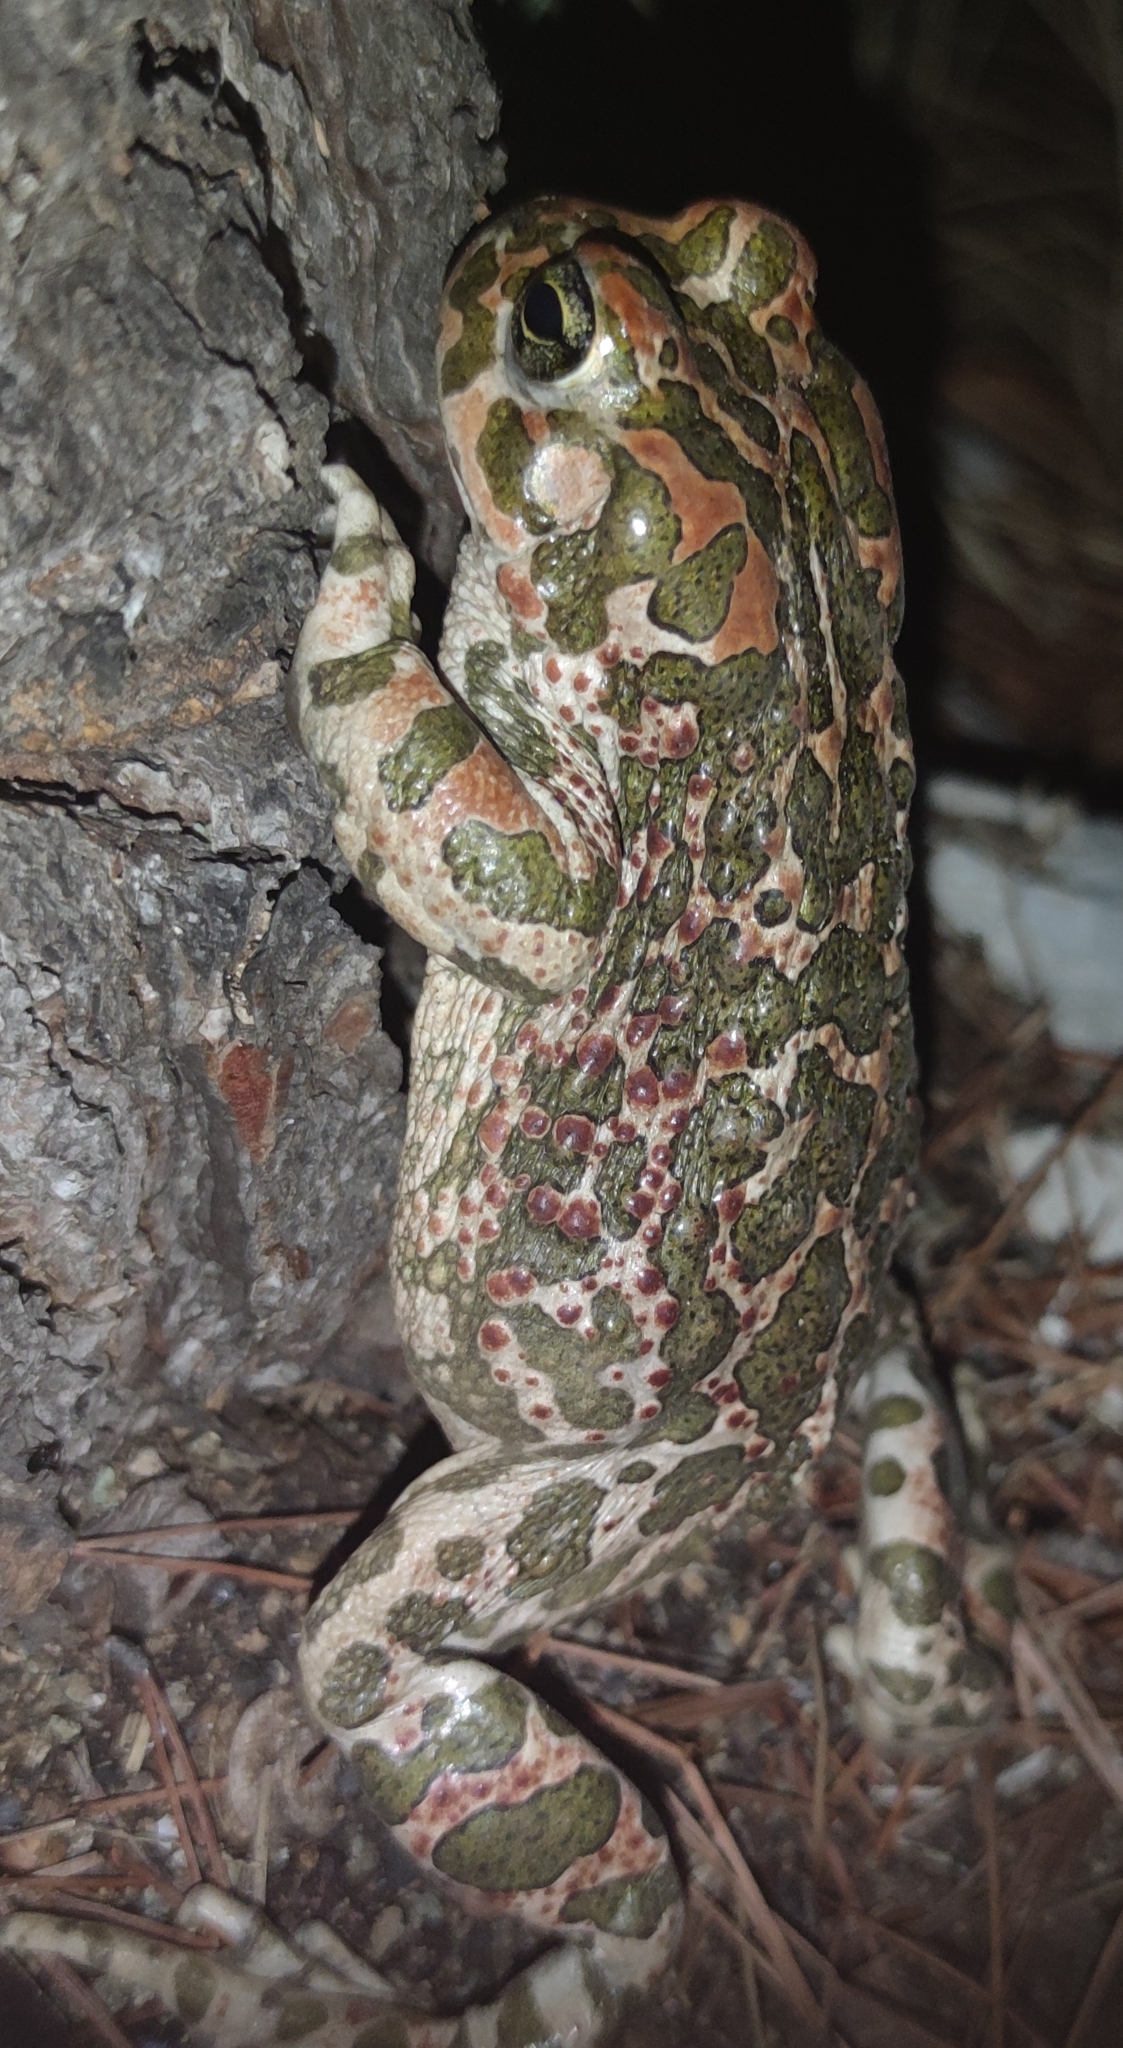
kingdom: Animalia
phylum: Chordata
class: Amphibia
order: Anura
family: Bufonidae
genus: Bufotes
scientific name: Bufotes viridis
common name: European green toad
